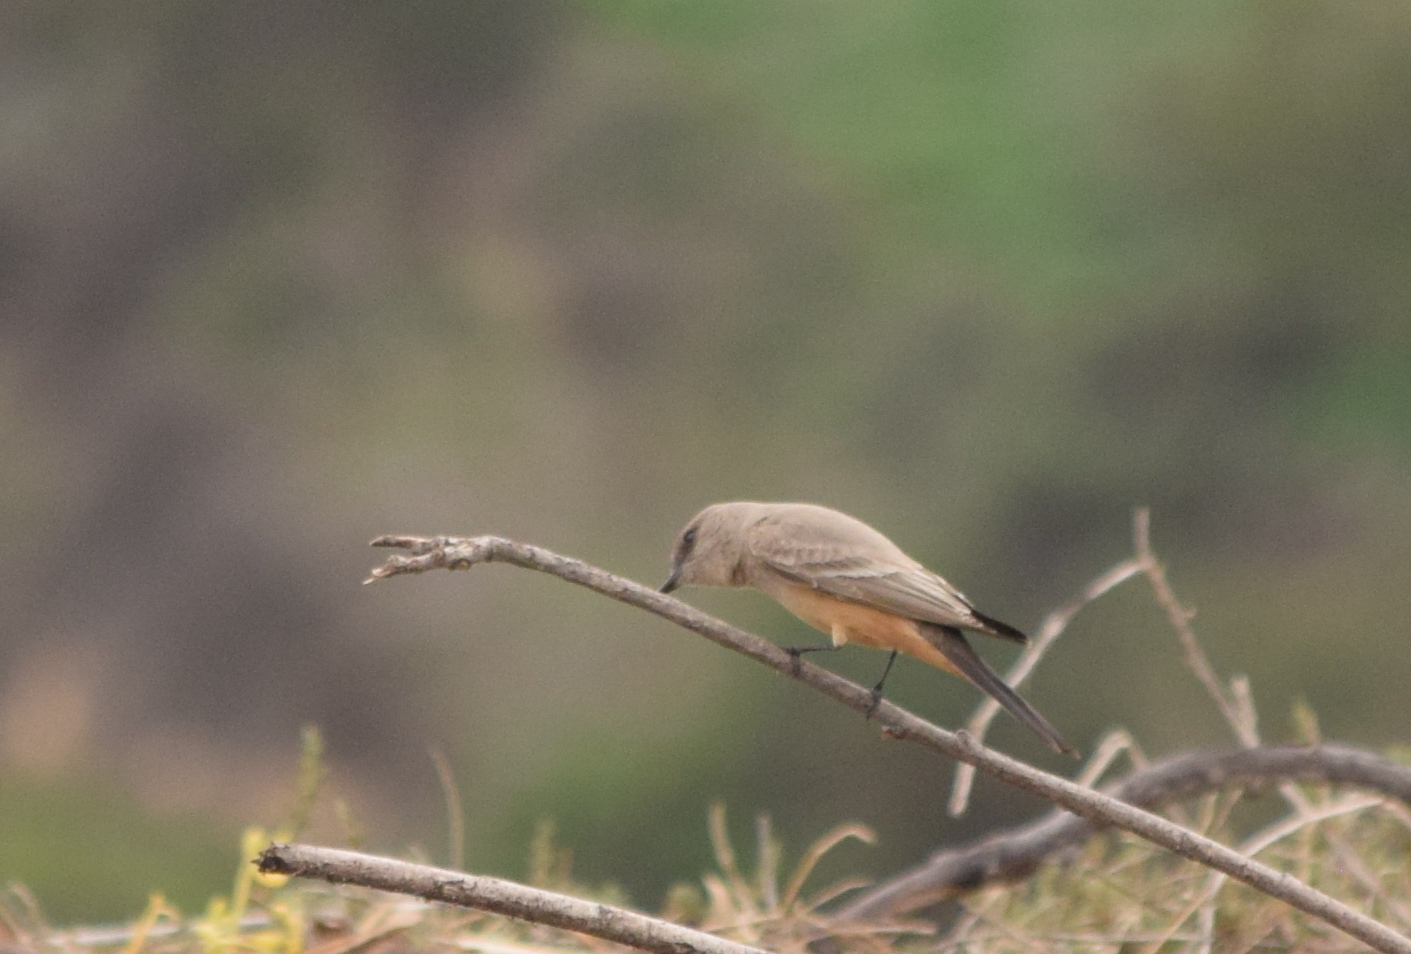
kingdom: Animalia
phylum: Chordata
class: Aves
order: Passeriformes
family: Tyrannidae
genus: Sayornis
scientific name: Sayornis saya
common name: Say's phoebe
